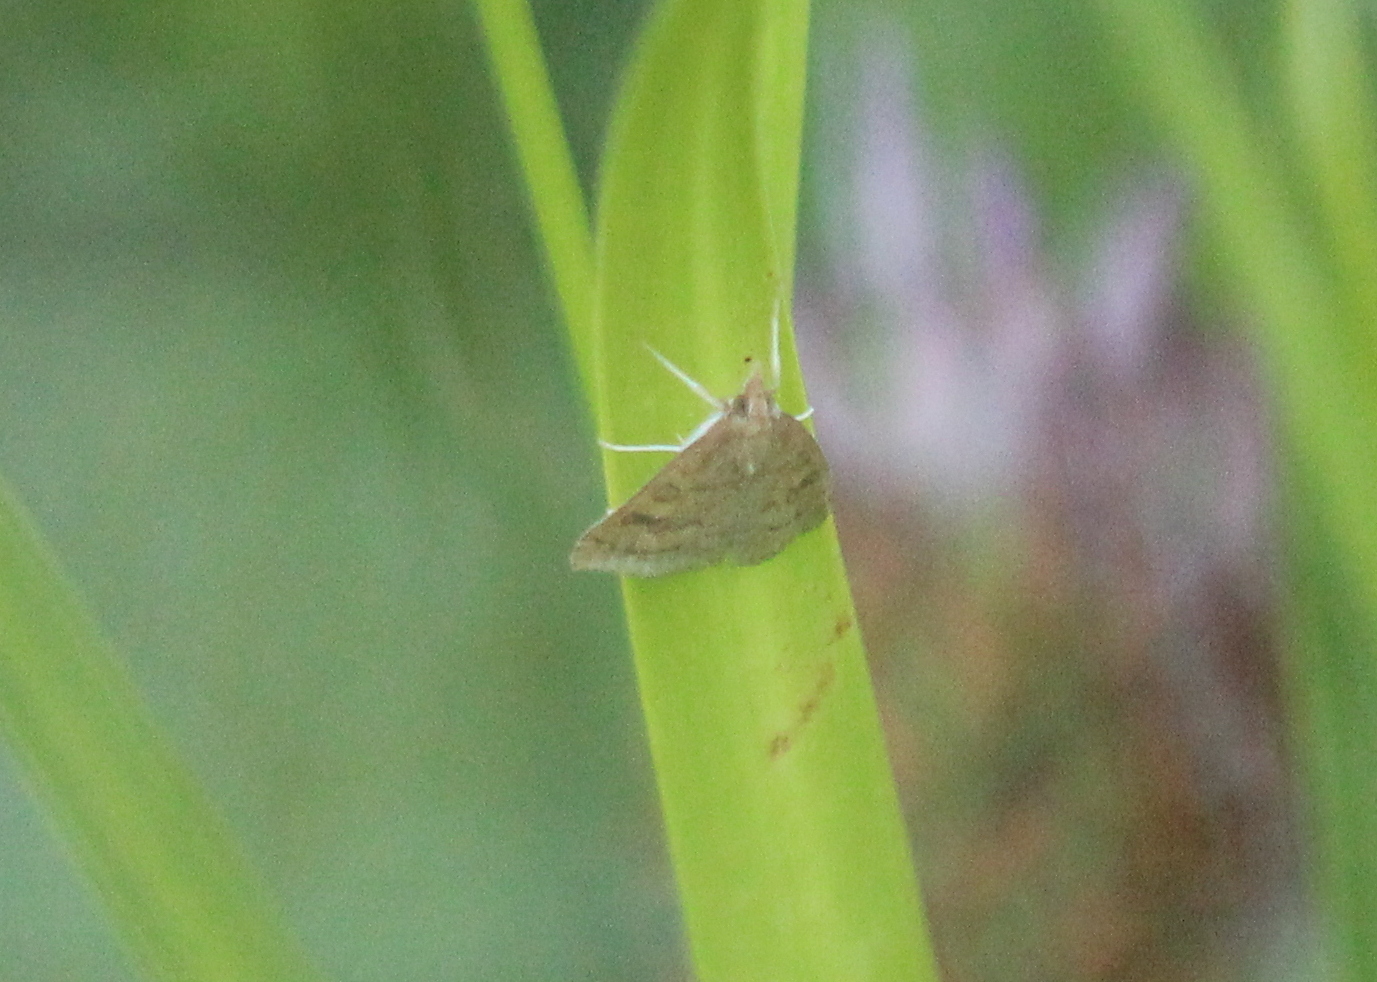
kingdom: Animalia
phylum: Arthropoda
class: Insecta
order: Lepidoptera
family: Crambidae
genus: Udea
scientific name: Udea rubigalis
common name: Celery leaftier moth
